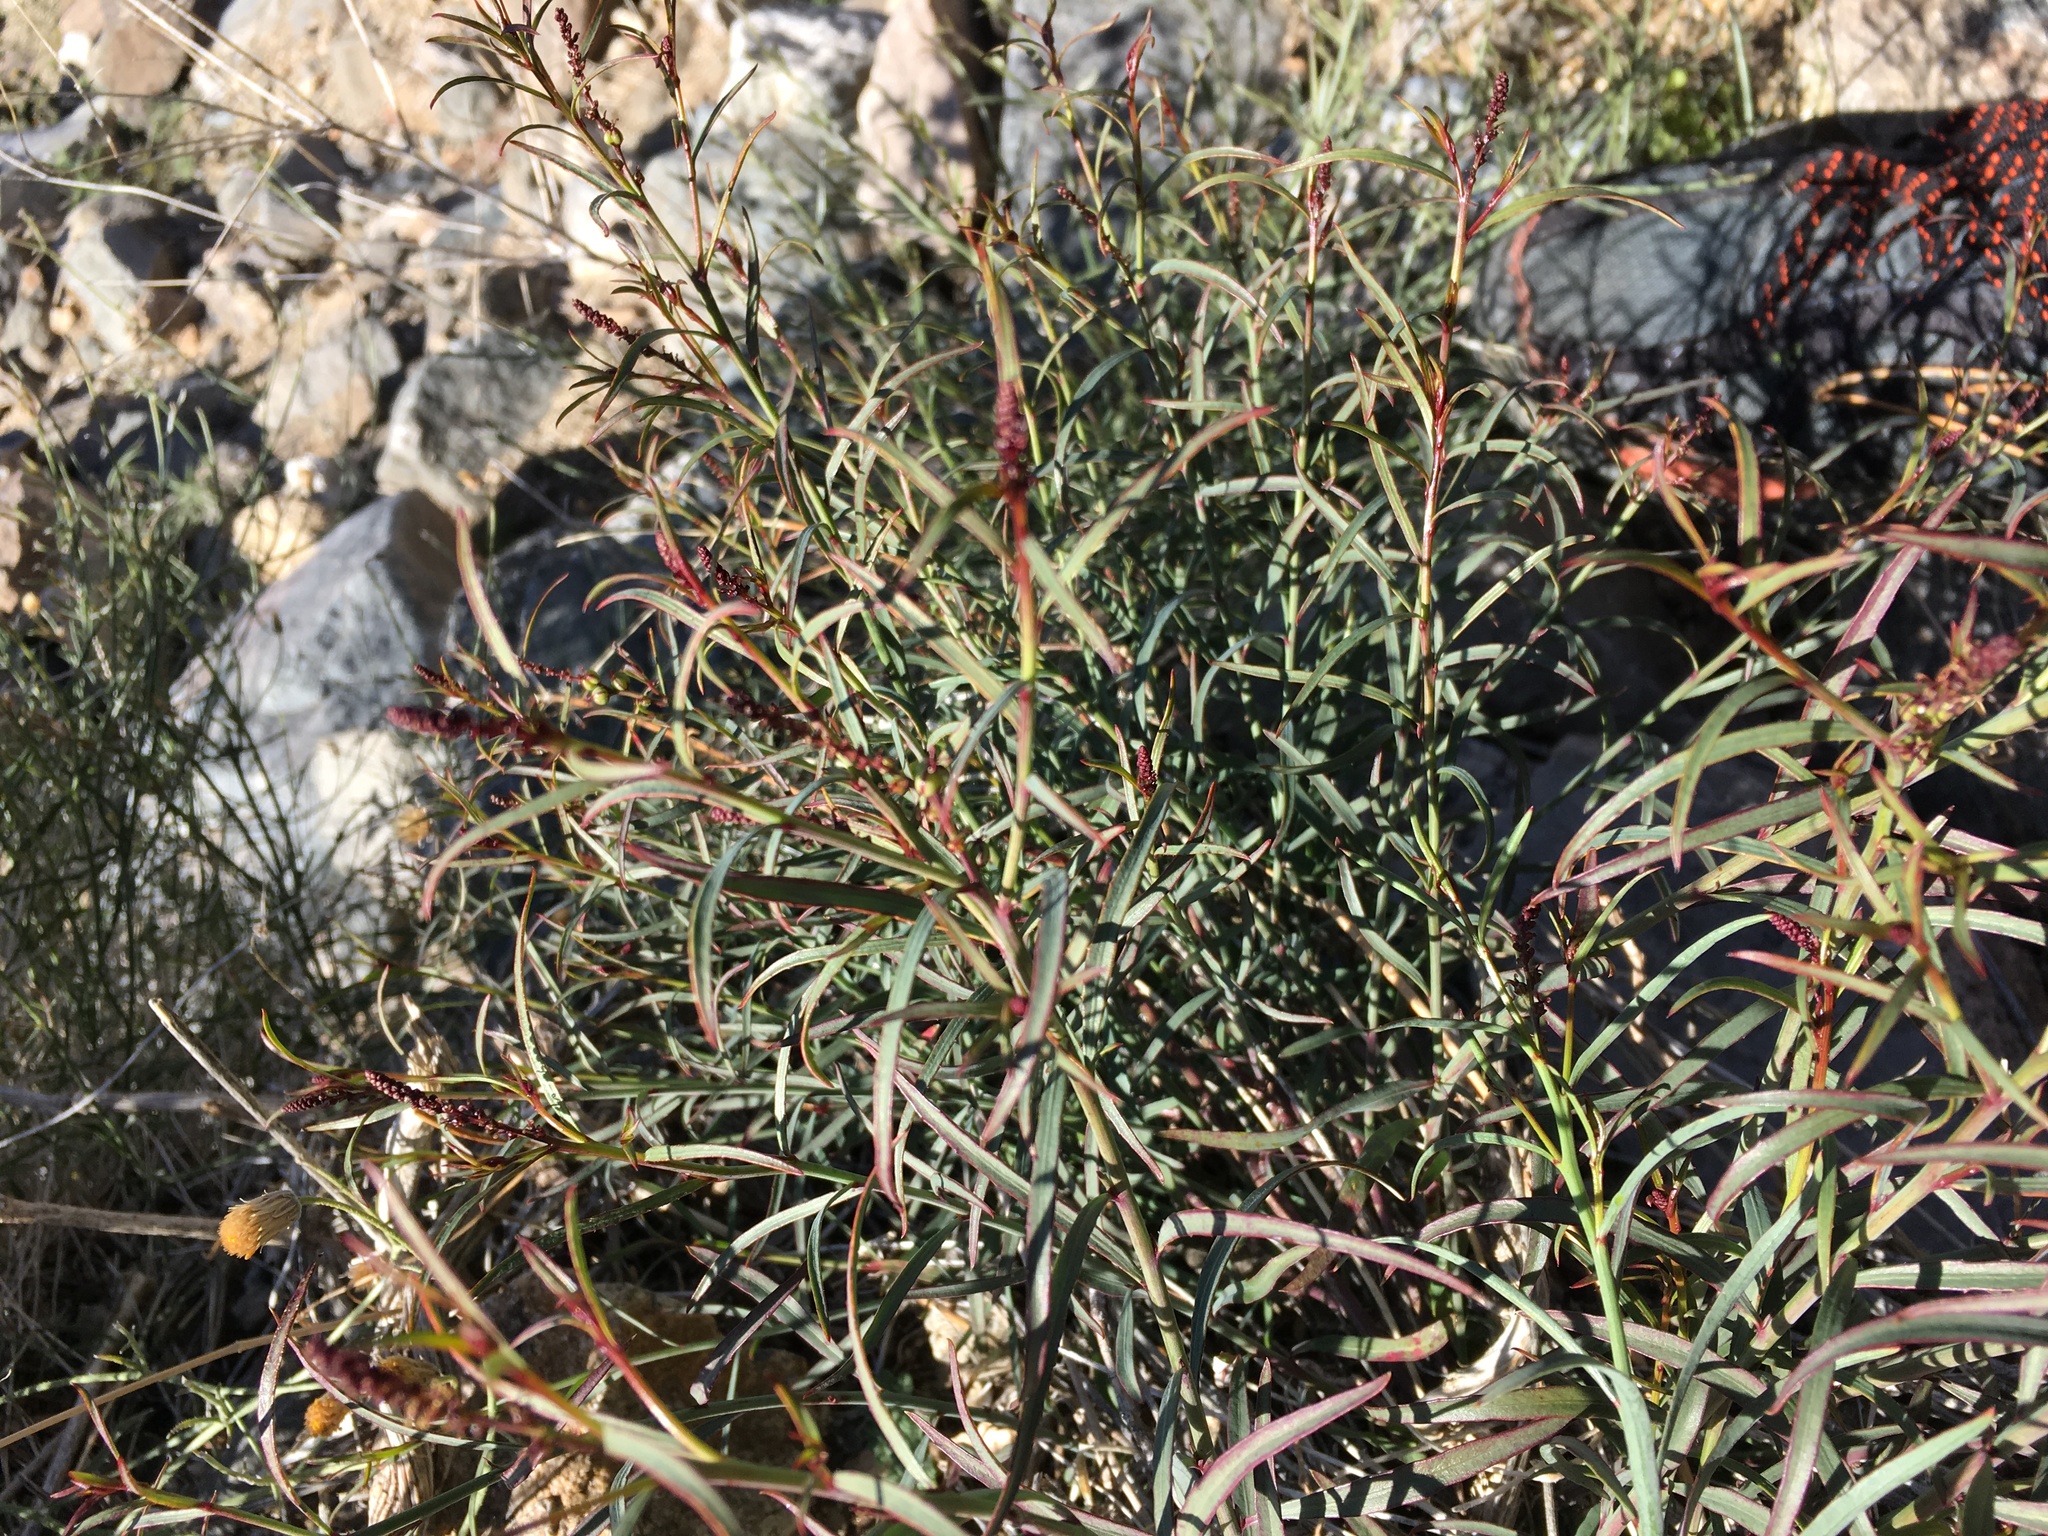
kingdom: Plantae
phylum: Tracheophyta
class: Magnoliopsida
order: Malpighiales
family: Euphorbiaceae
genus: Stillingia
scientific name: Stillingia linearifolia
